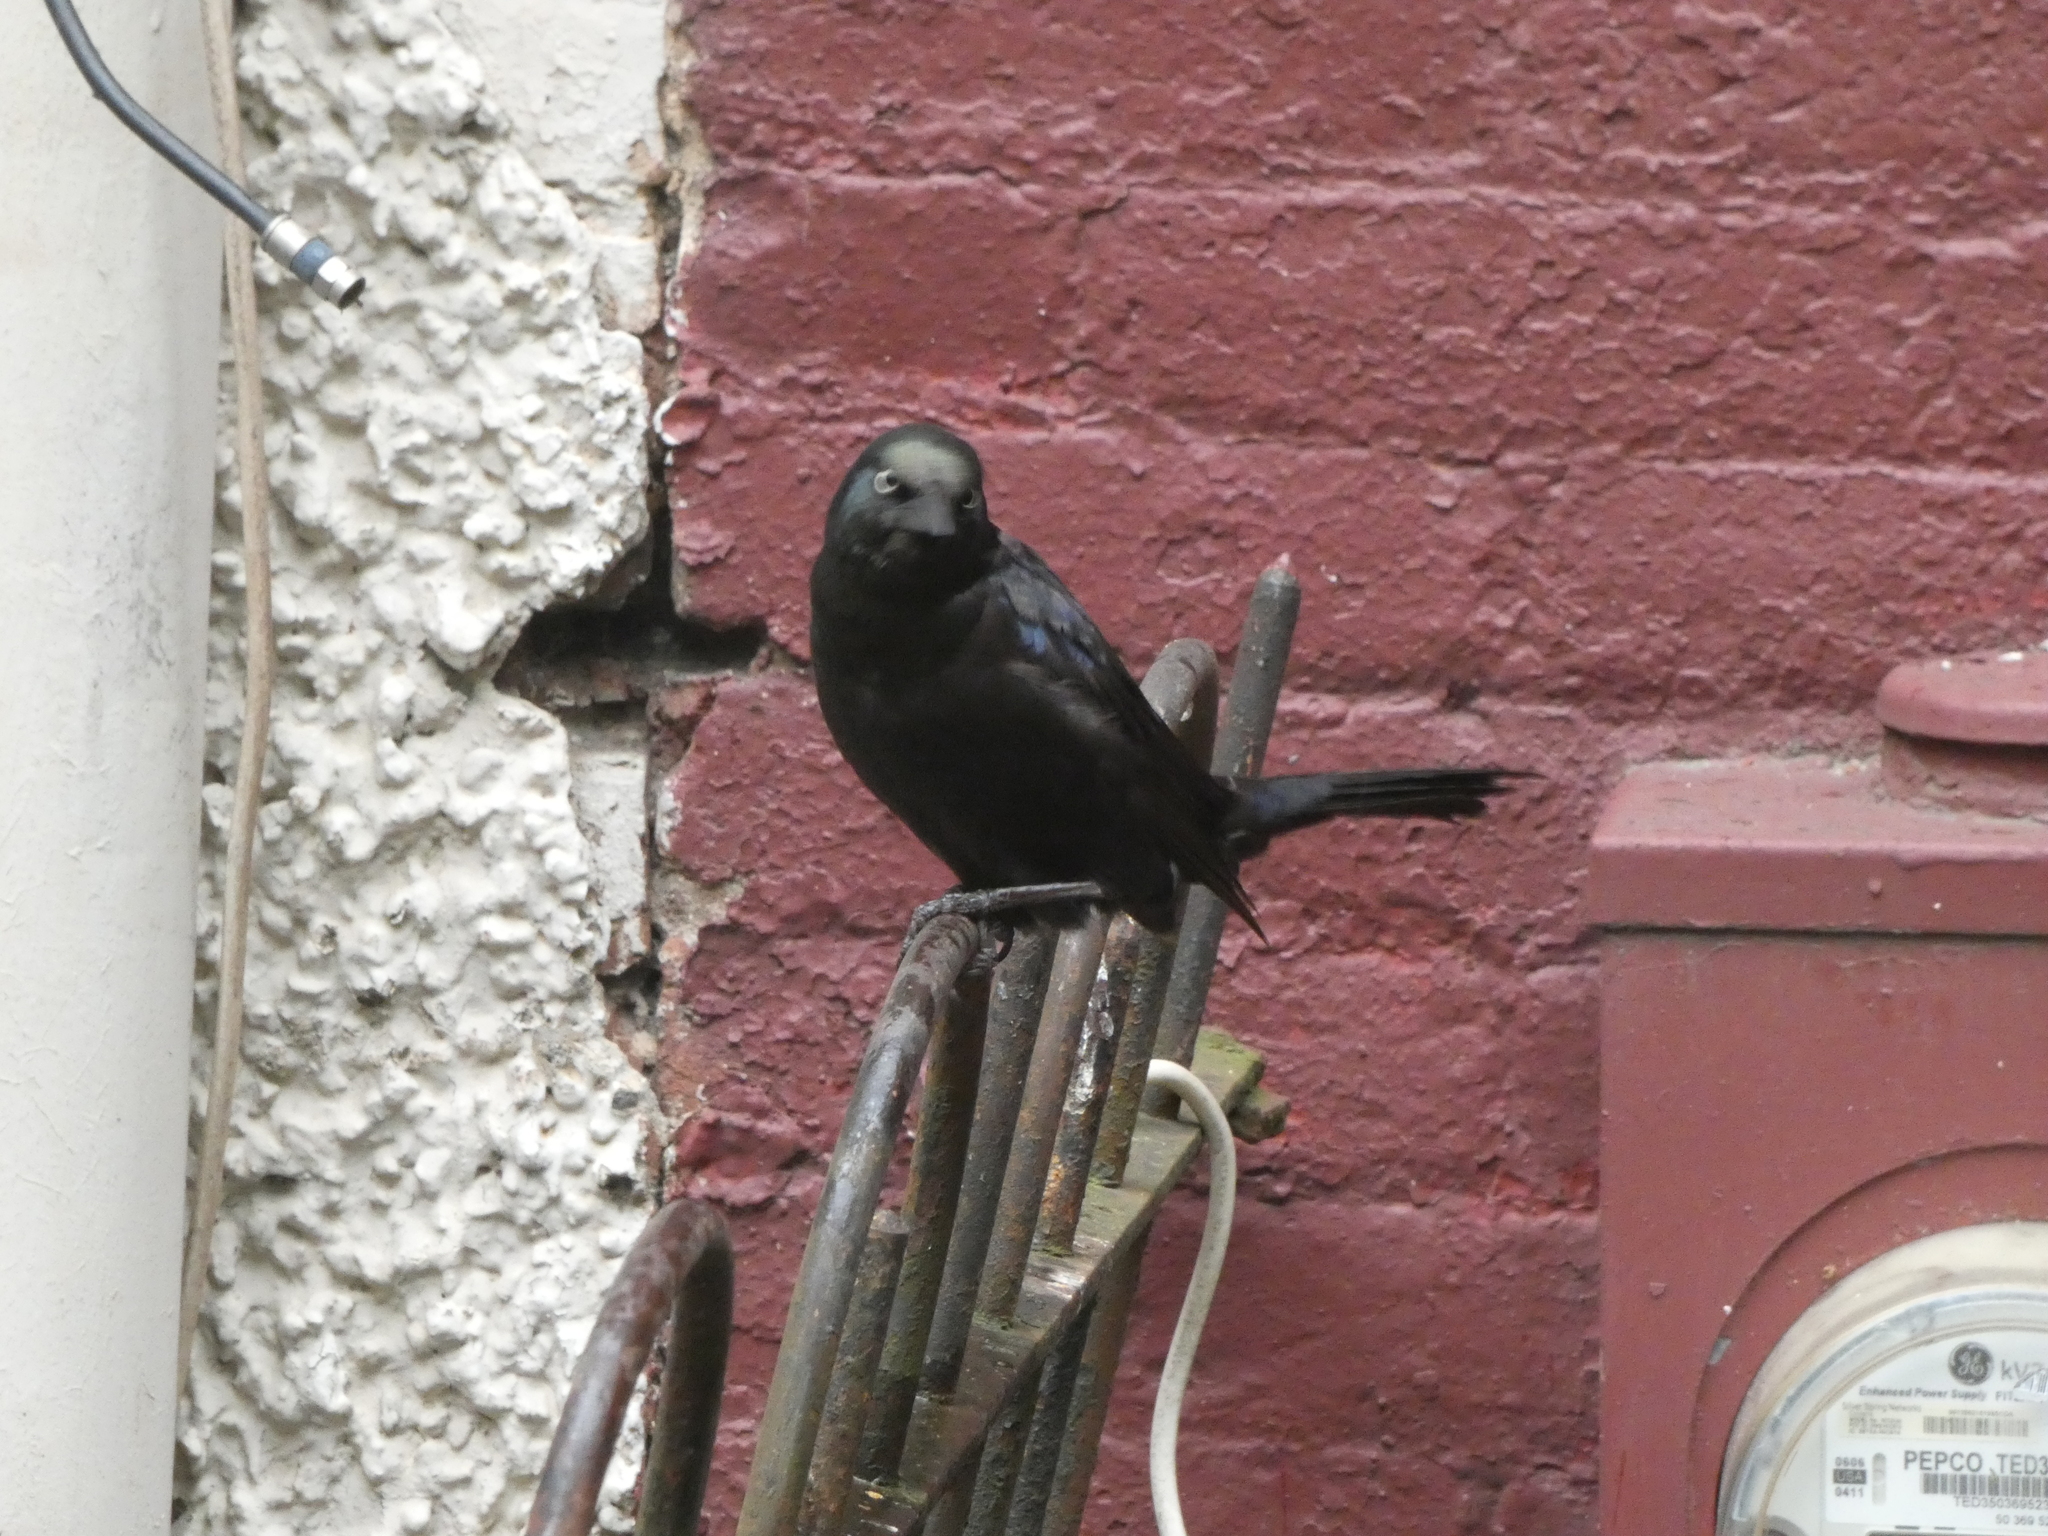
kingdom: Animalia
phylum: Chordata
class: Aves
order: Passeriformes
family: Icteridae
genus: Quiscalus
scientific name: Quiscalus quiscula
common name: Common grackle
